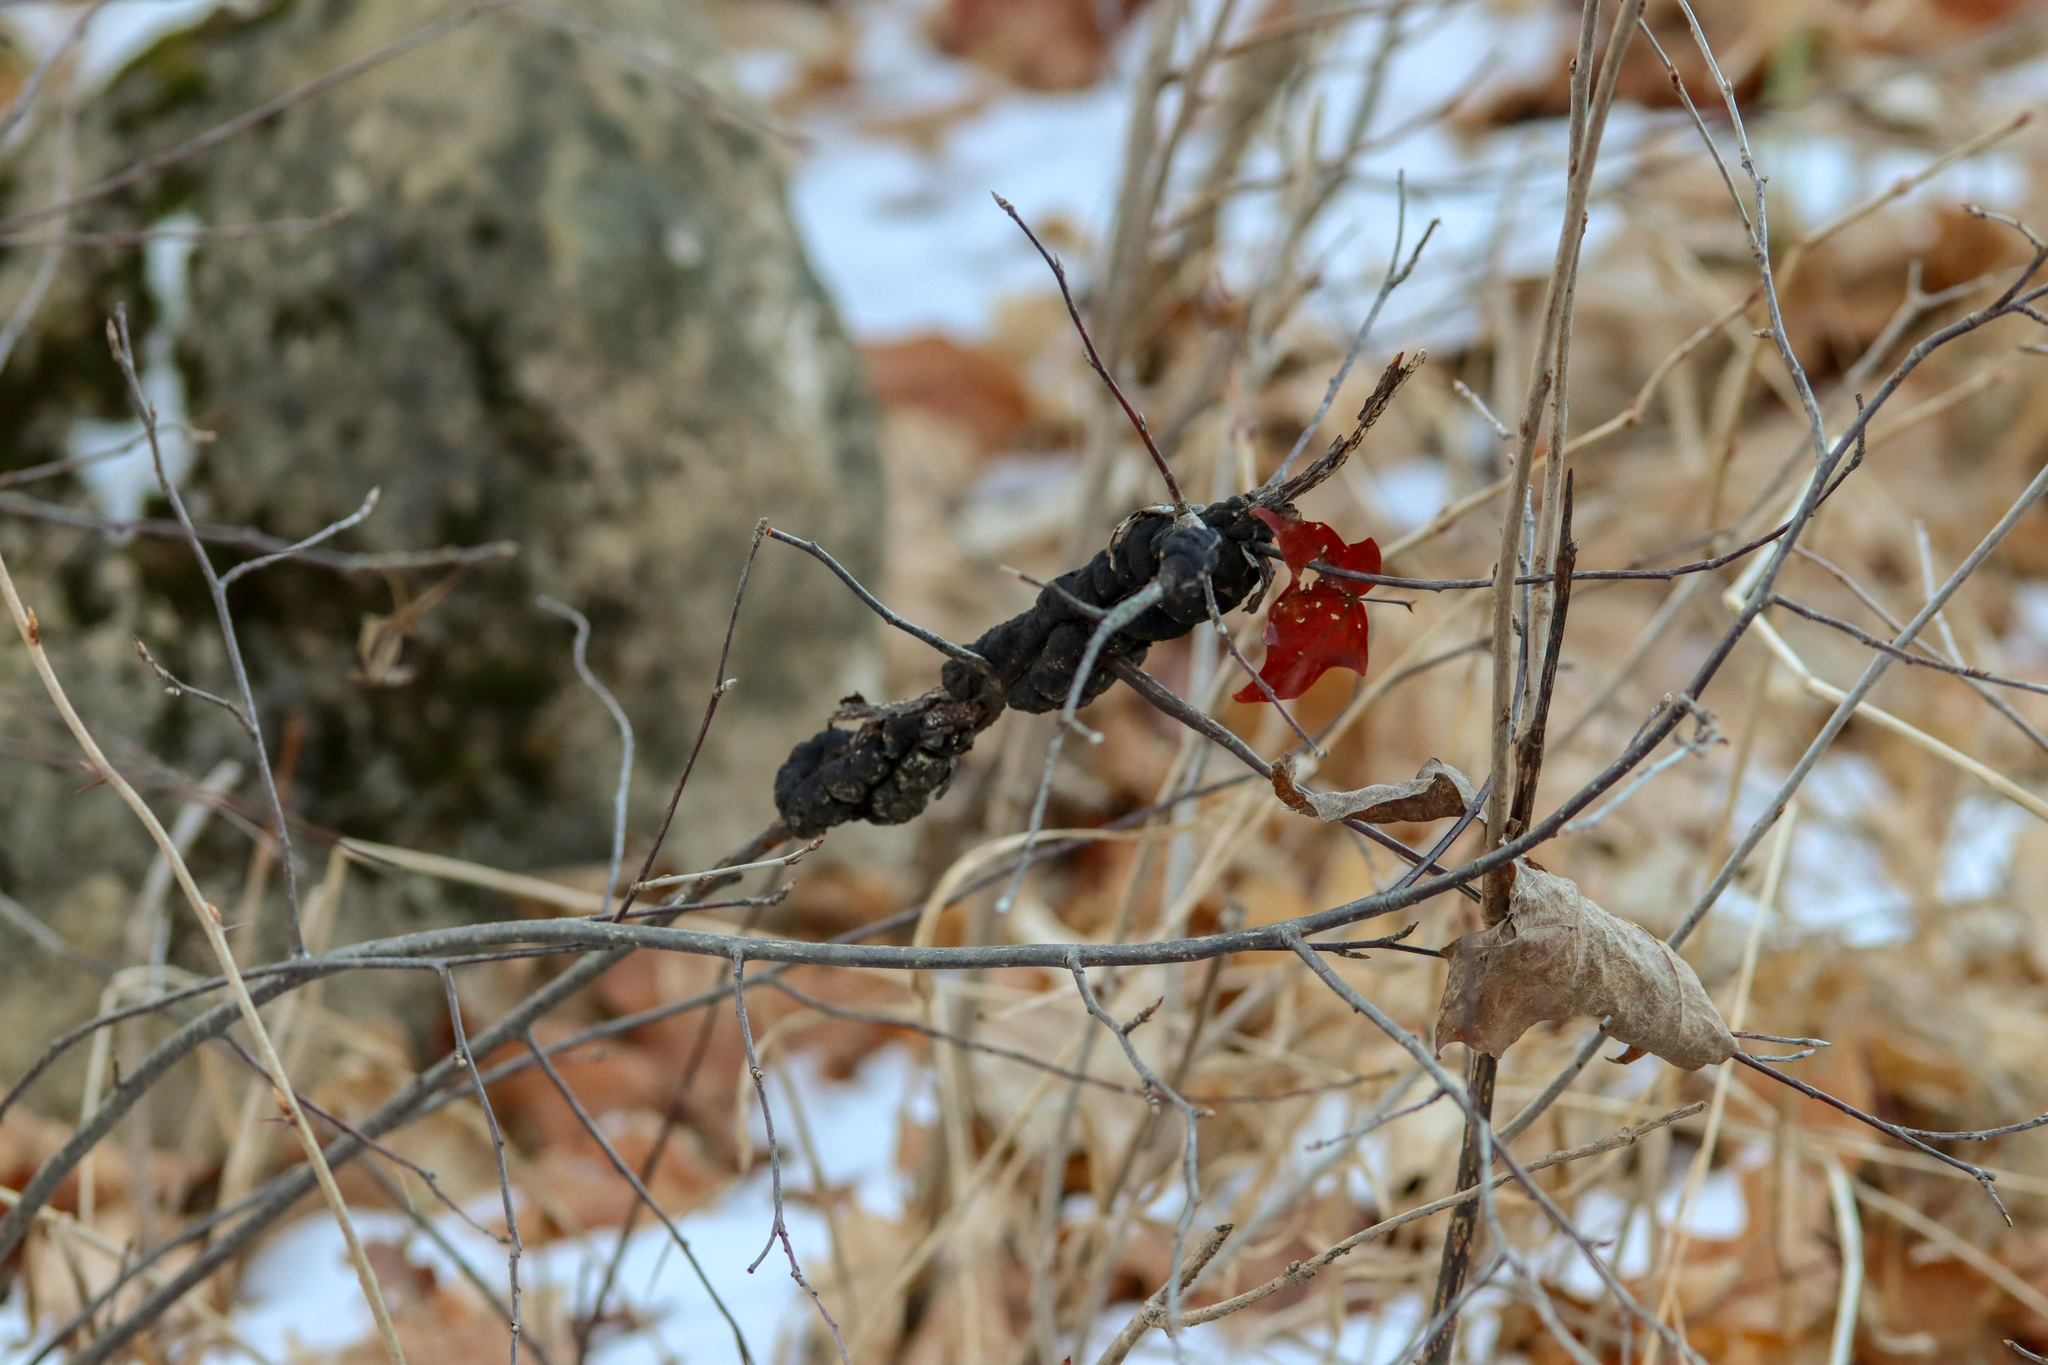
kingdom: Fungi
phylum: Ascomycota
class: Dothideomycetes
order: Venturiales
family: Venturiaceae
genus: Apiosporina
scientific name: Apiosporina morbosa
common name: Black knot
